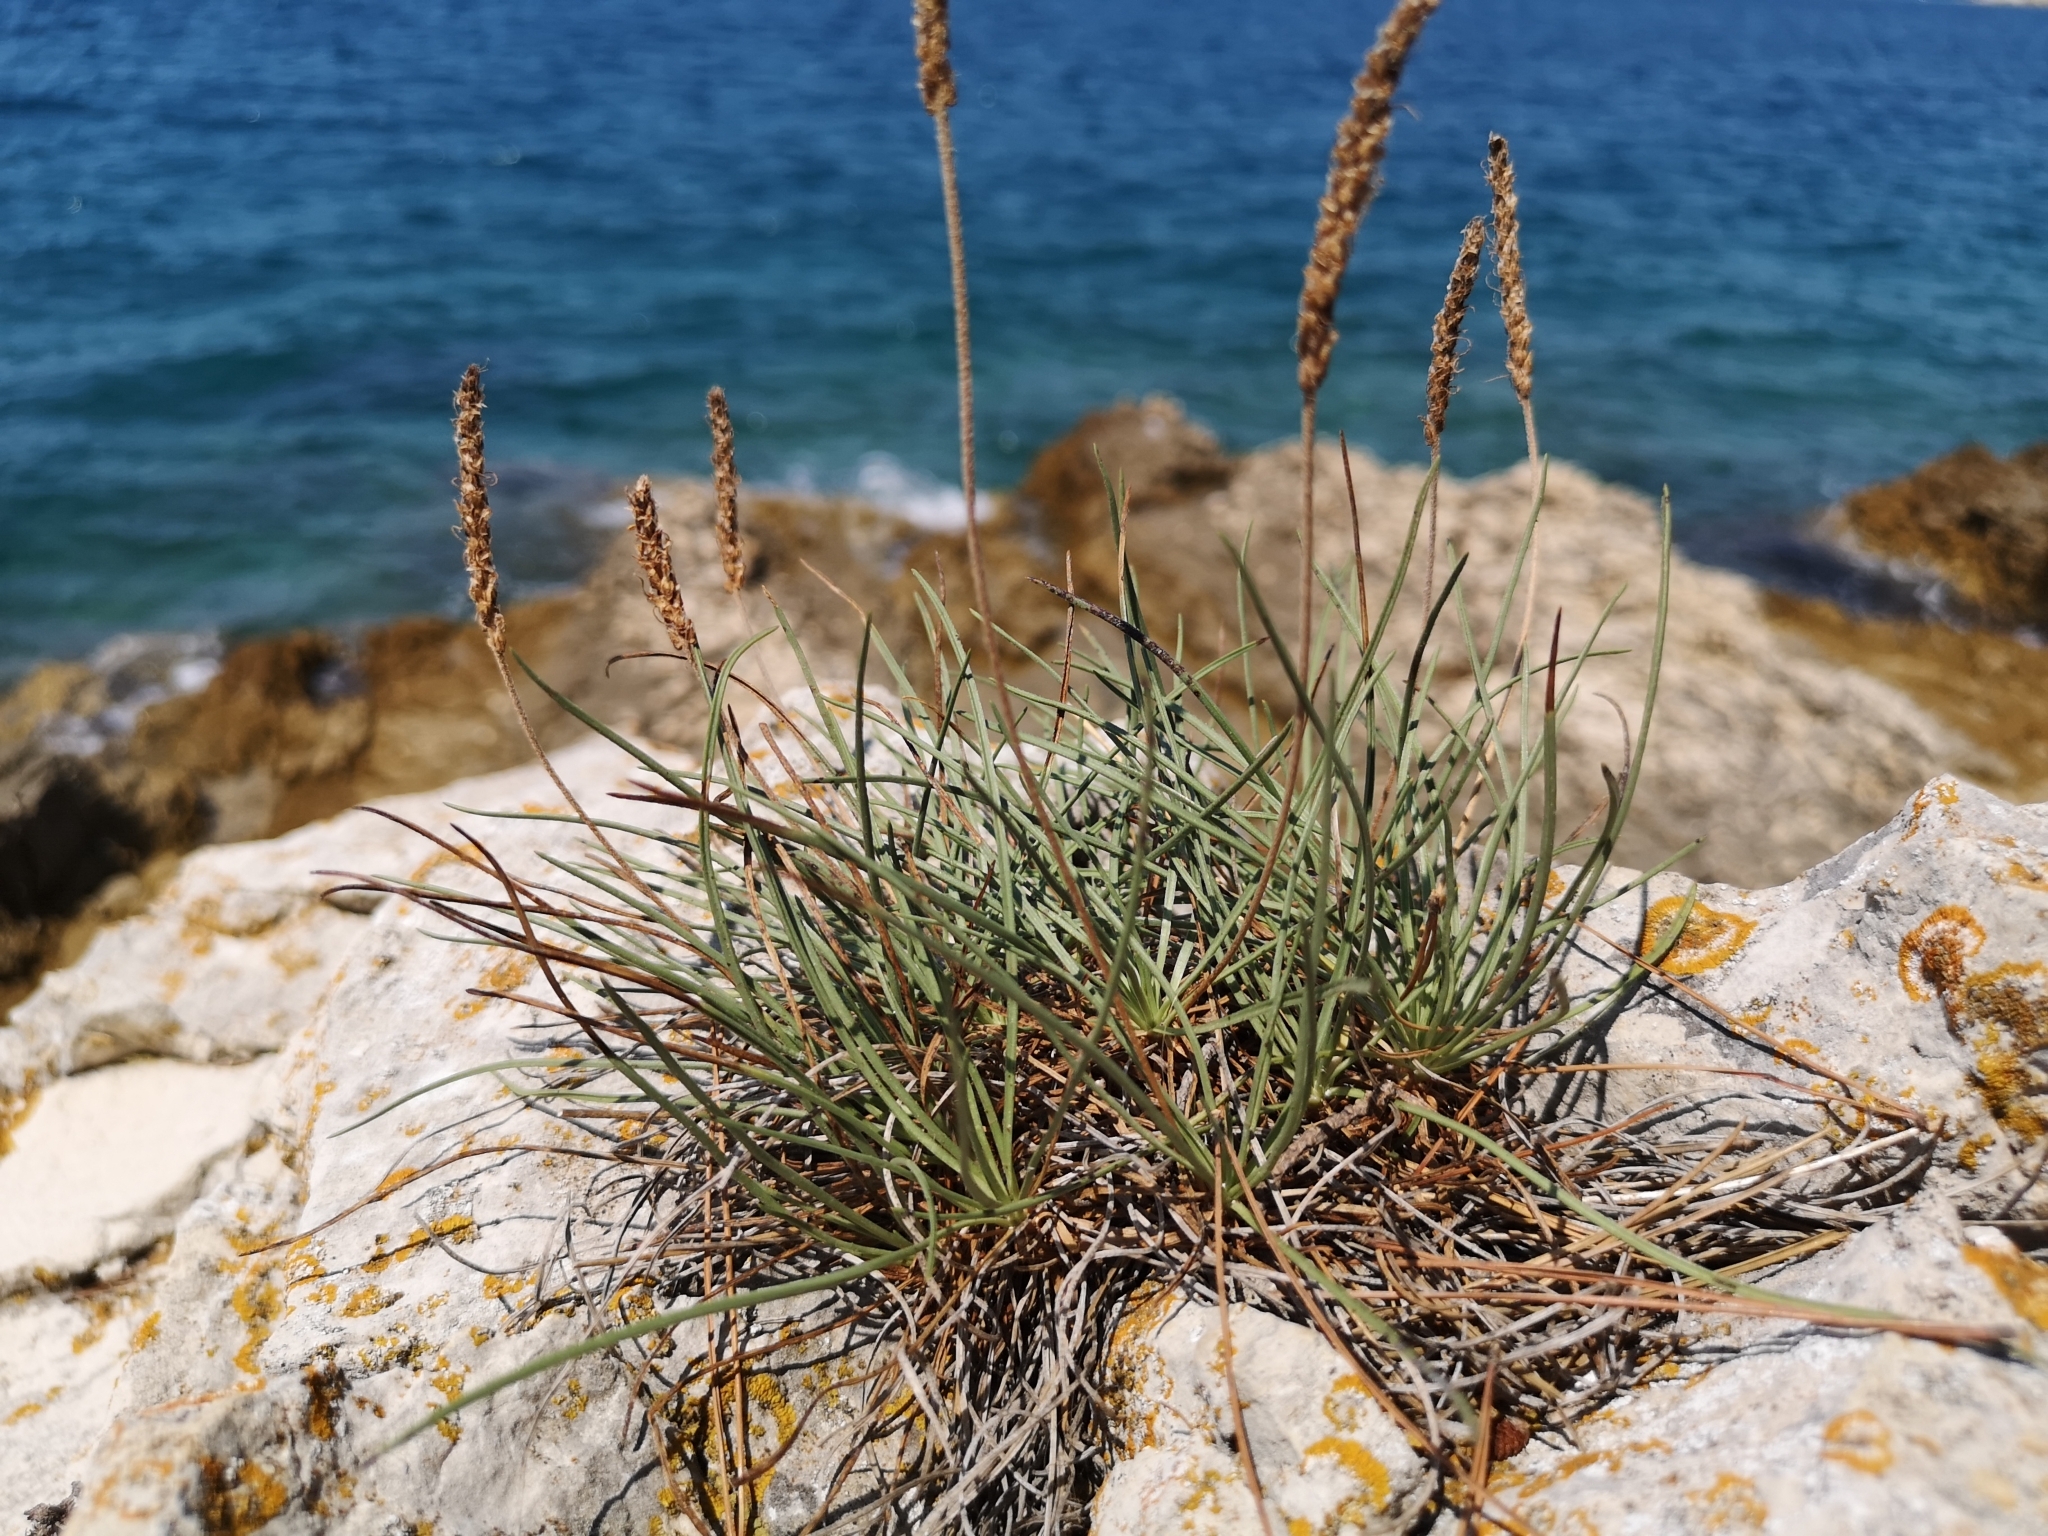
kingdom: Plantae
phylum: Tracheophyta
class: Magnoliopsida
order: Lamiales
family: Plantaginaceae
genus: Plantago
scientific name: Plantago maritima
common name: Sea plantain
